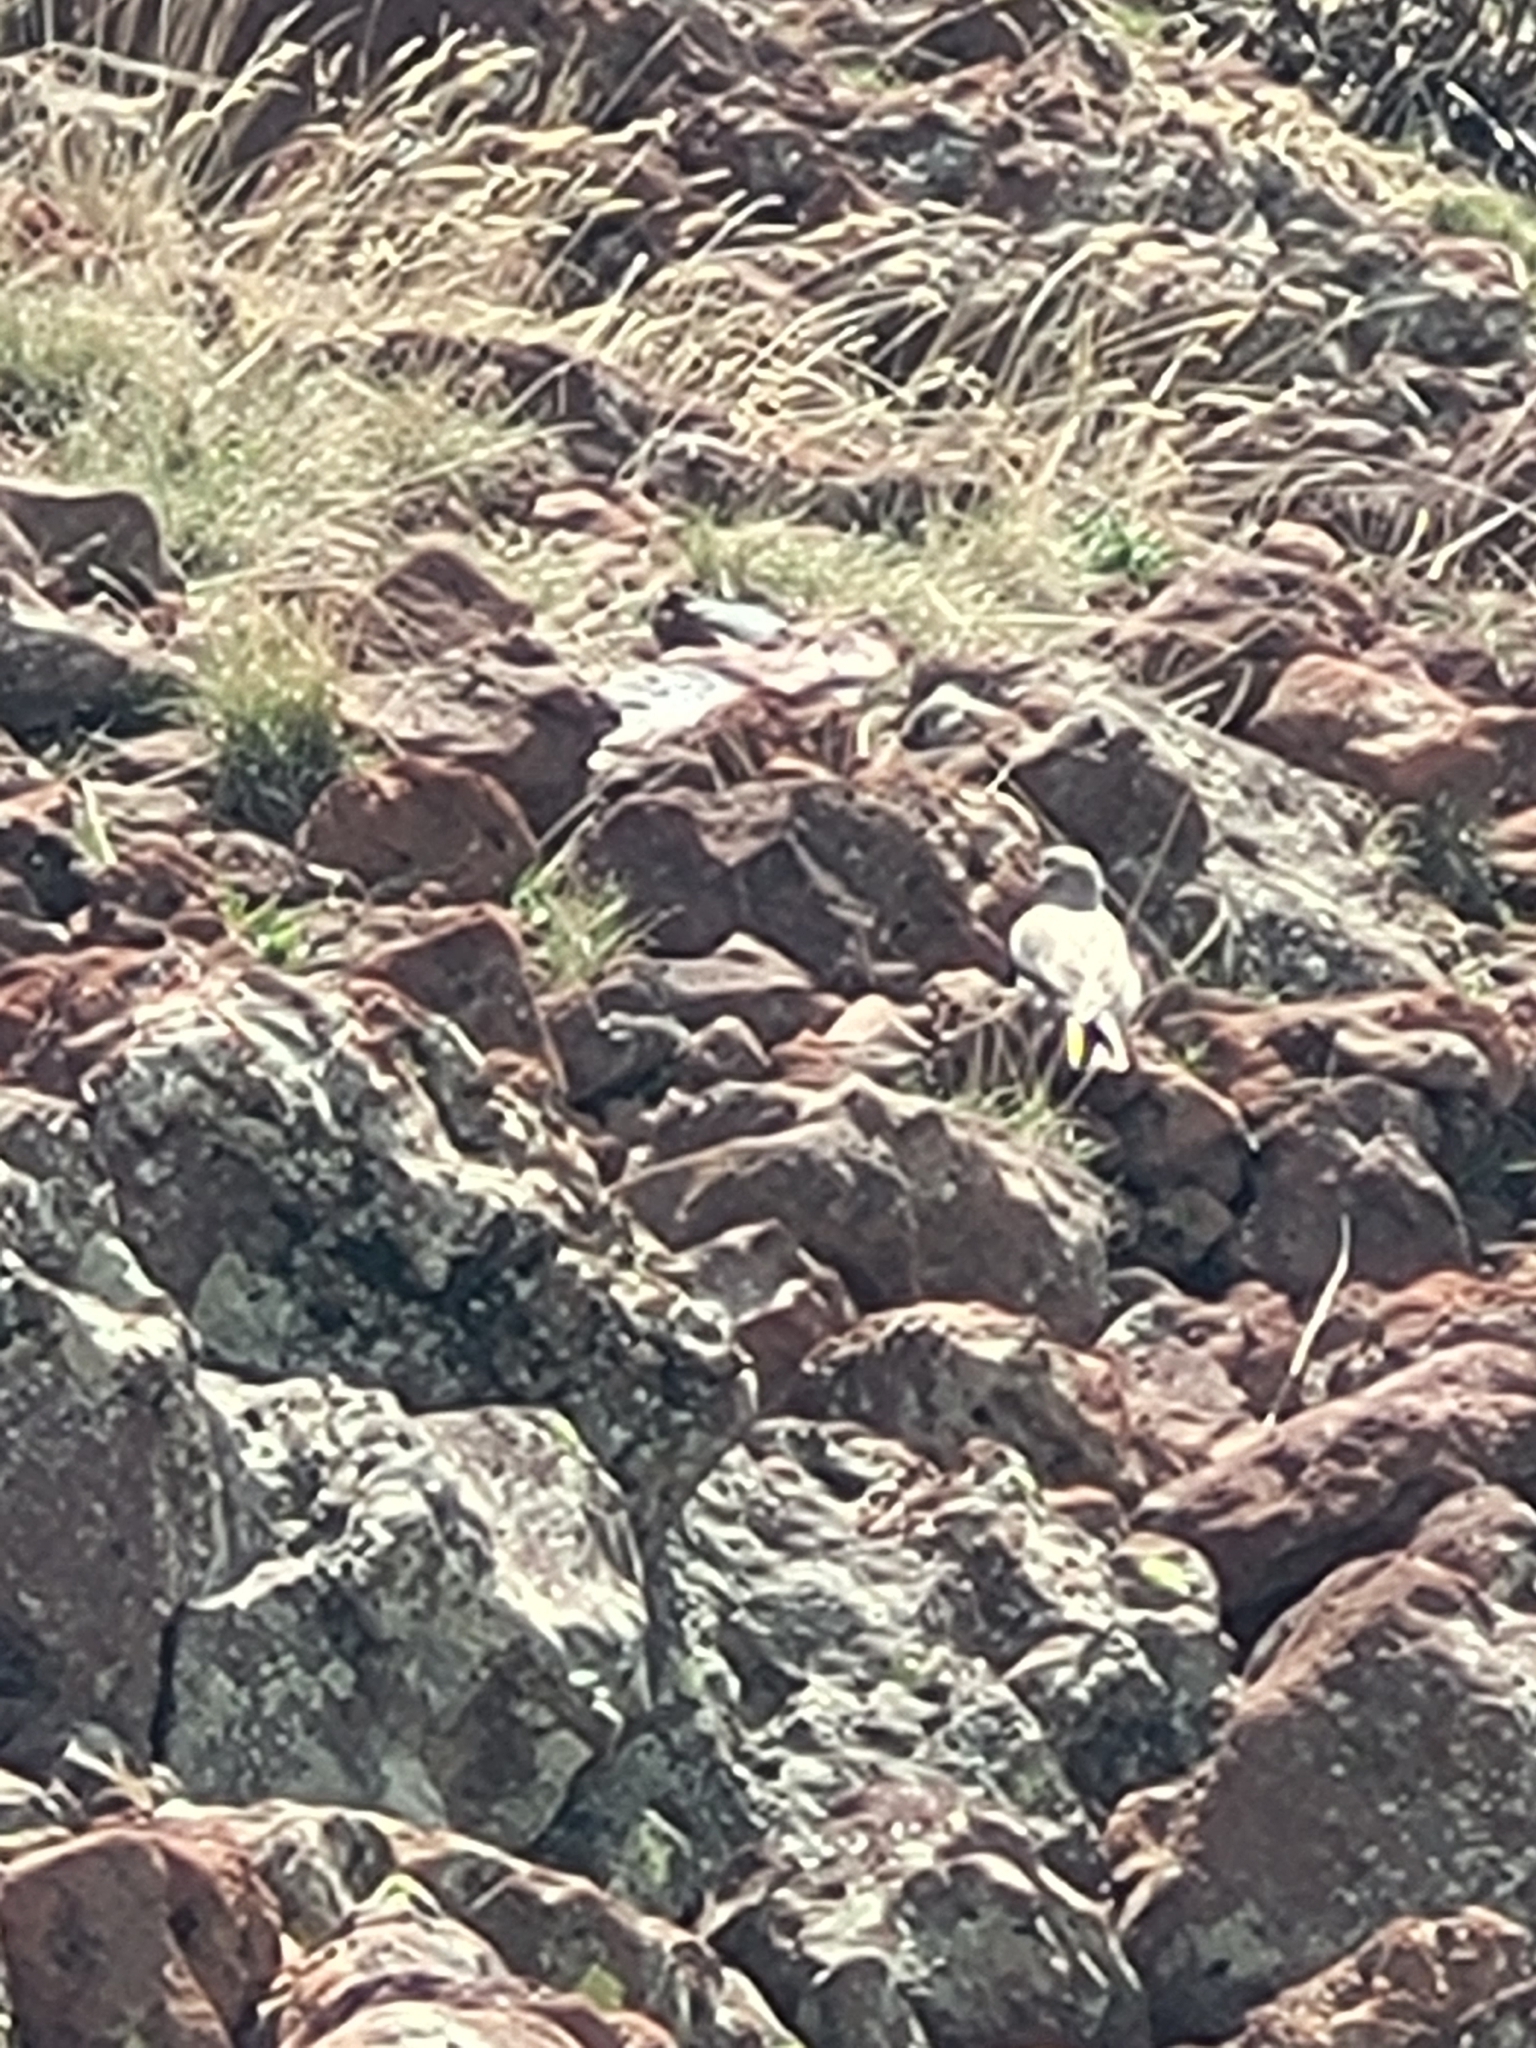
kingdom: Animalia
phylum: Chordata
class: Aves
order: Passeriformes
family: Passeridae
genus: Montifringilla
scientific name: Montifringilla nivalis
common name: White-winged snowfinch
